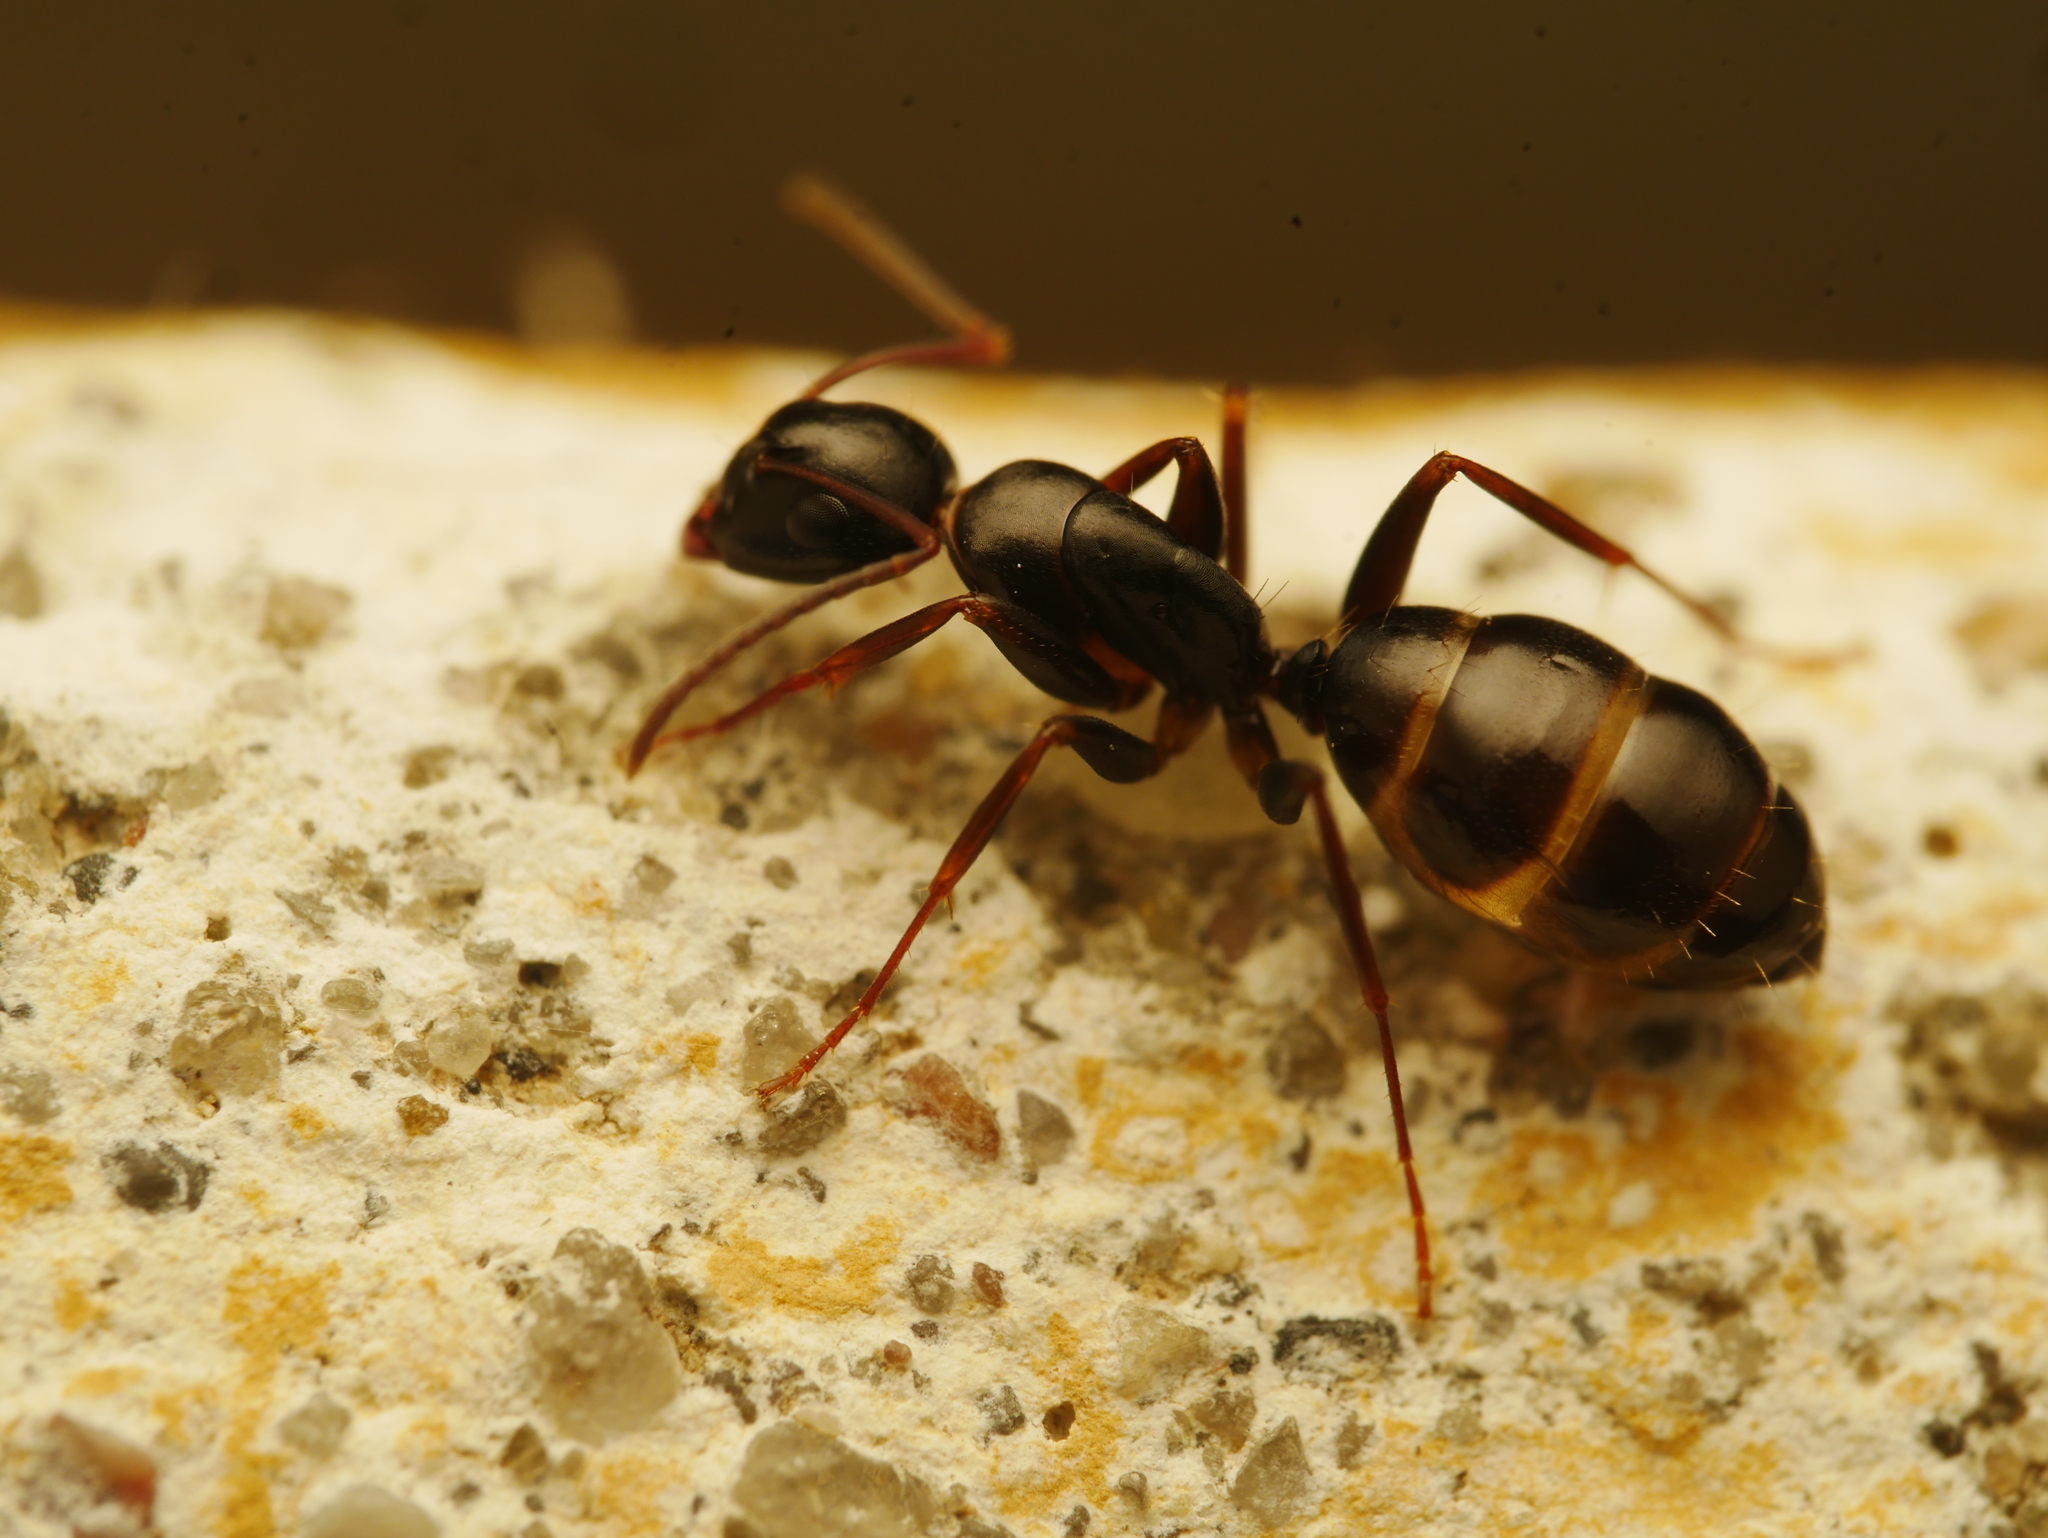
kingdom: Animalia
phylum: Arthropoda
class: Insecta
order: Hymenoptera
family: Formicidae
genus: Camponotus
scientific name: Camponotus fallax
